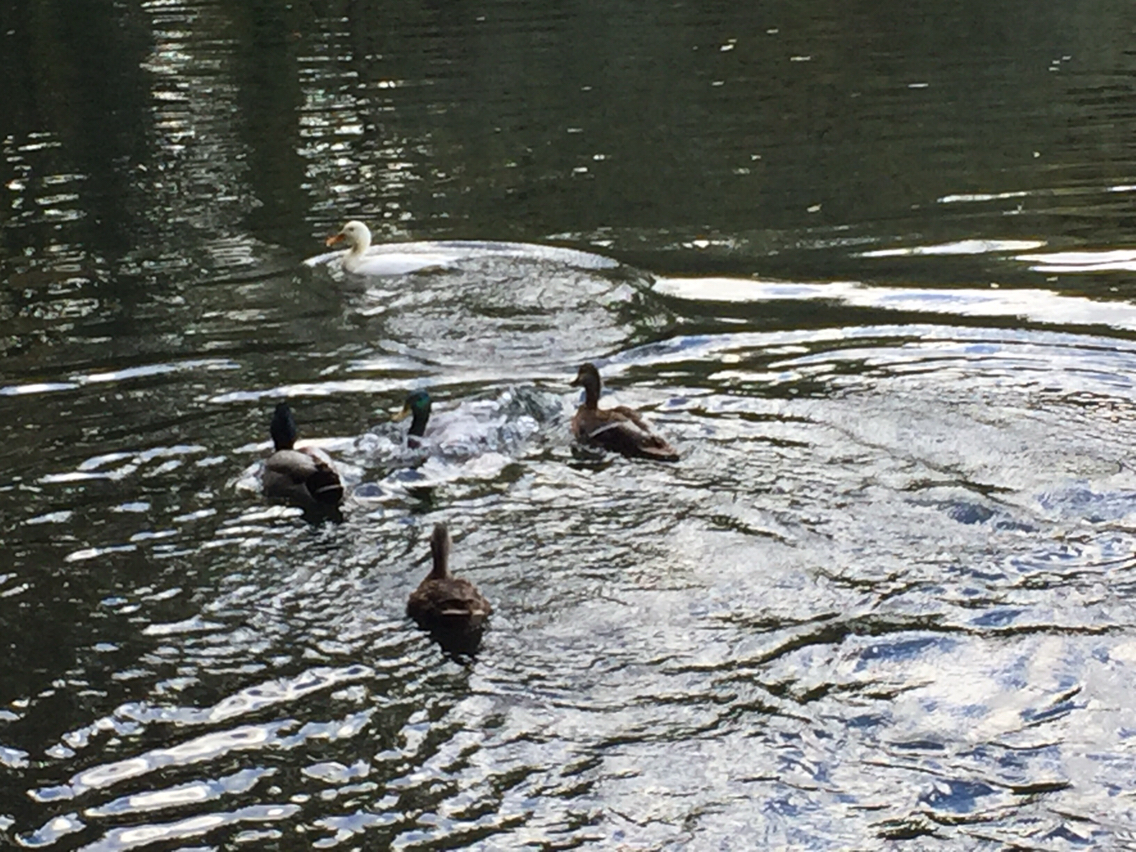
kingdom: Animalia
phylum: Chordata
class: Aves
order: Anseriformes
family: Anatidae
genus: Anas
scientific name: Anas platyrhynchos
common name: Mallard
